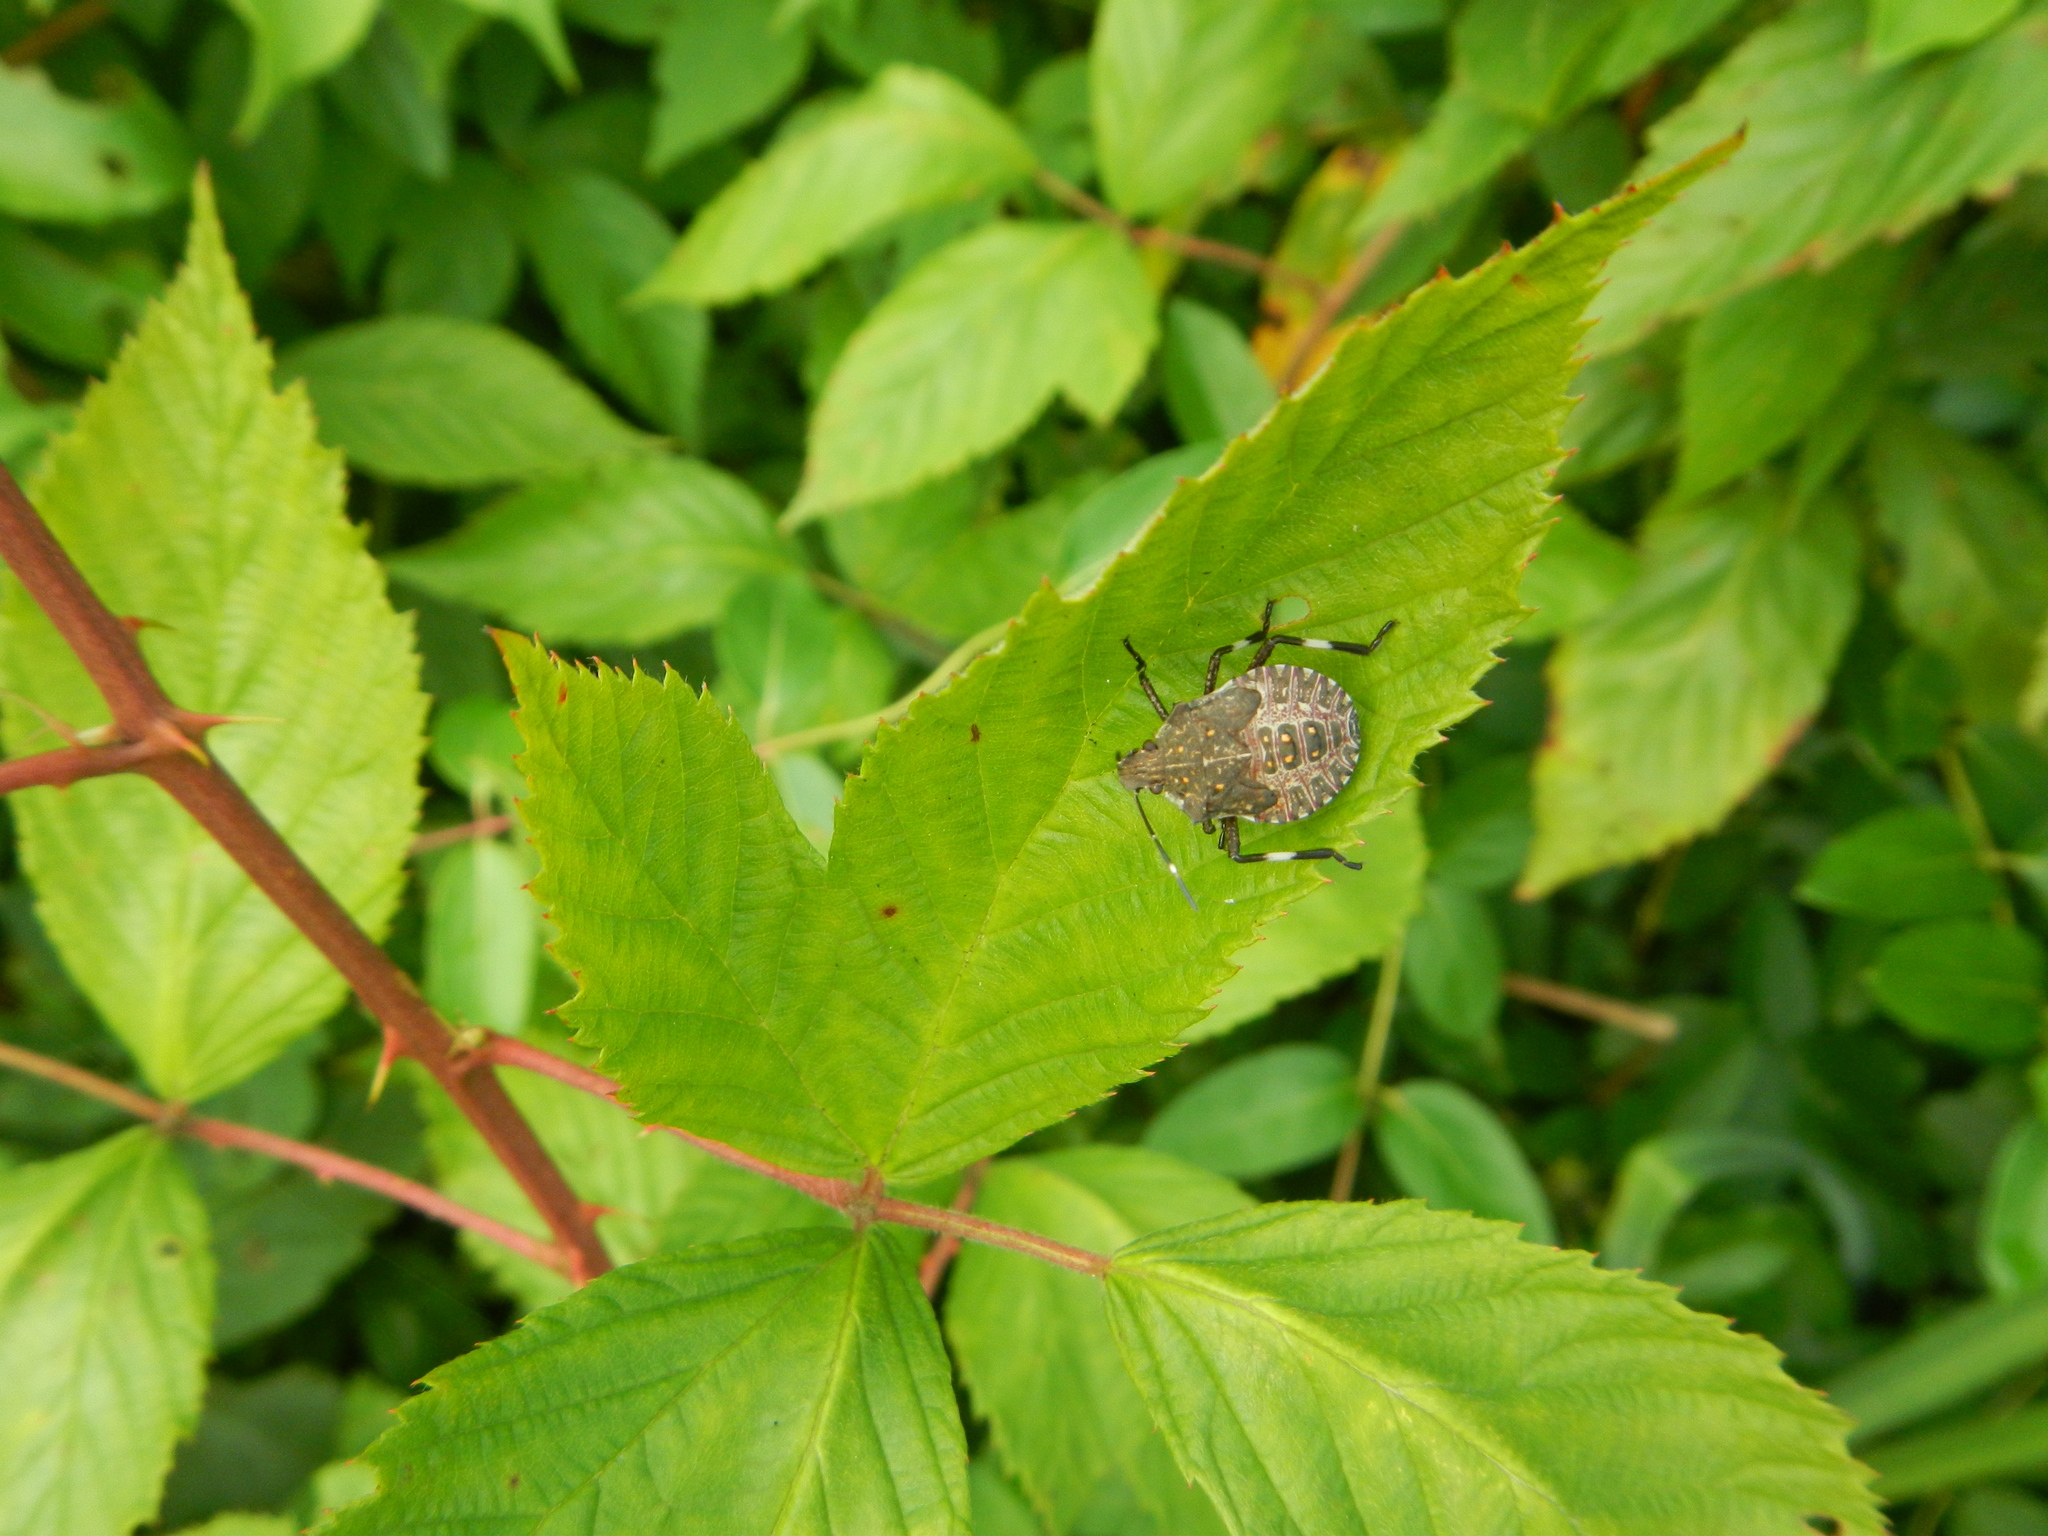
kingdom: Animalia
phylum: Arthropoda
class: Insecta
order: Hemiptera
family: Pentatomidae
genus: Halyomorpha
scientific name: Halyomorpha halys
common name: Brown marmorated stink bug
